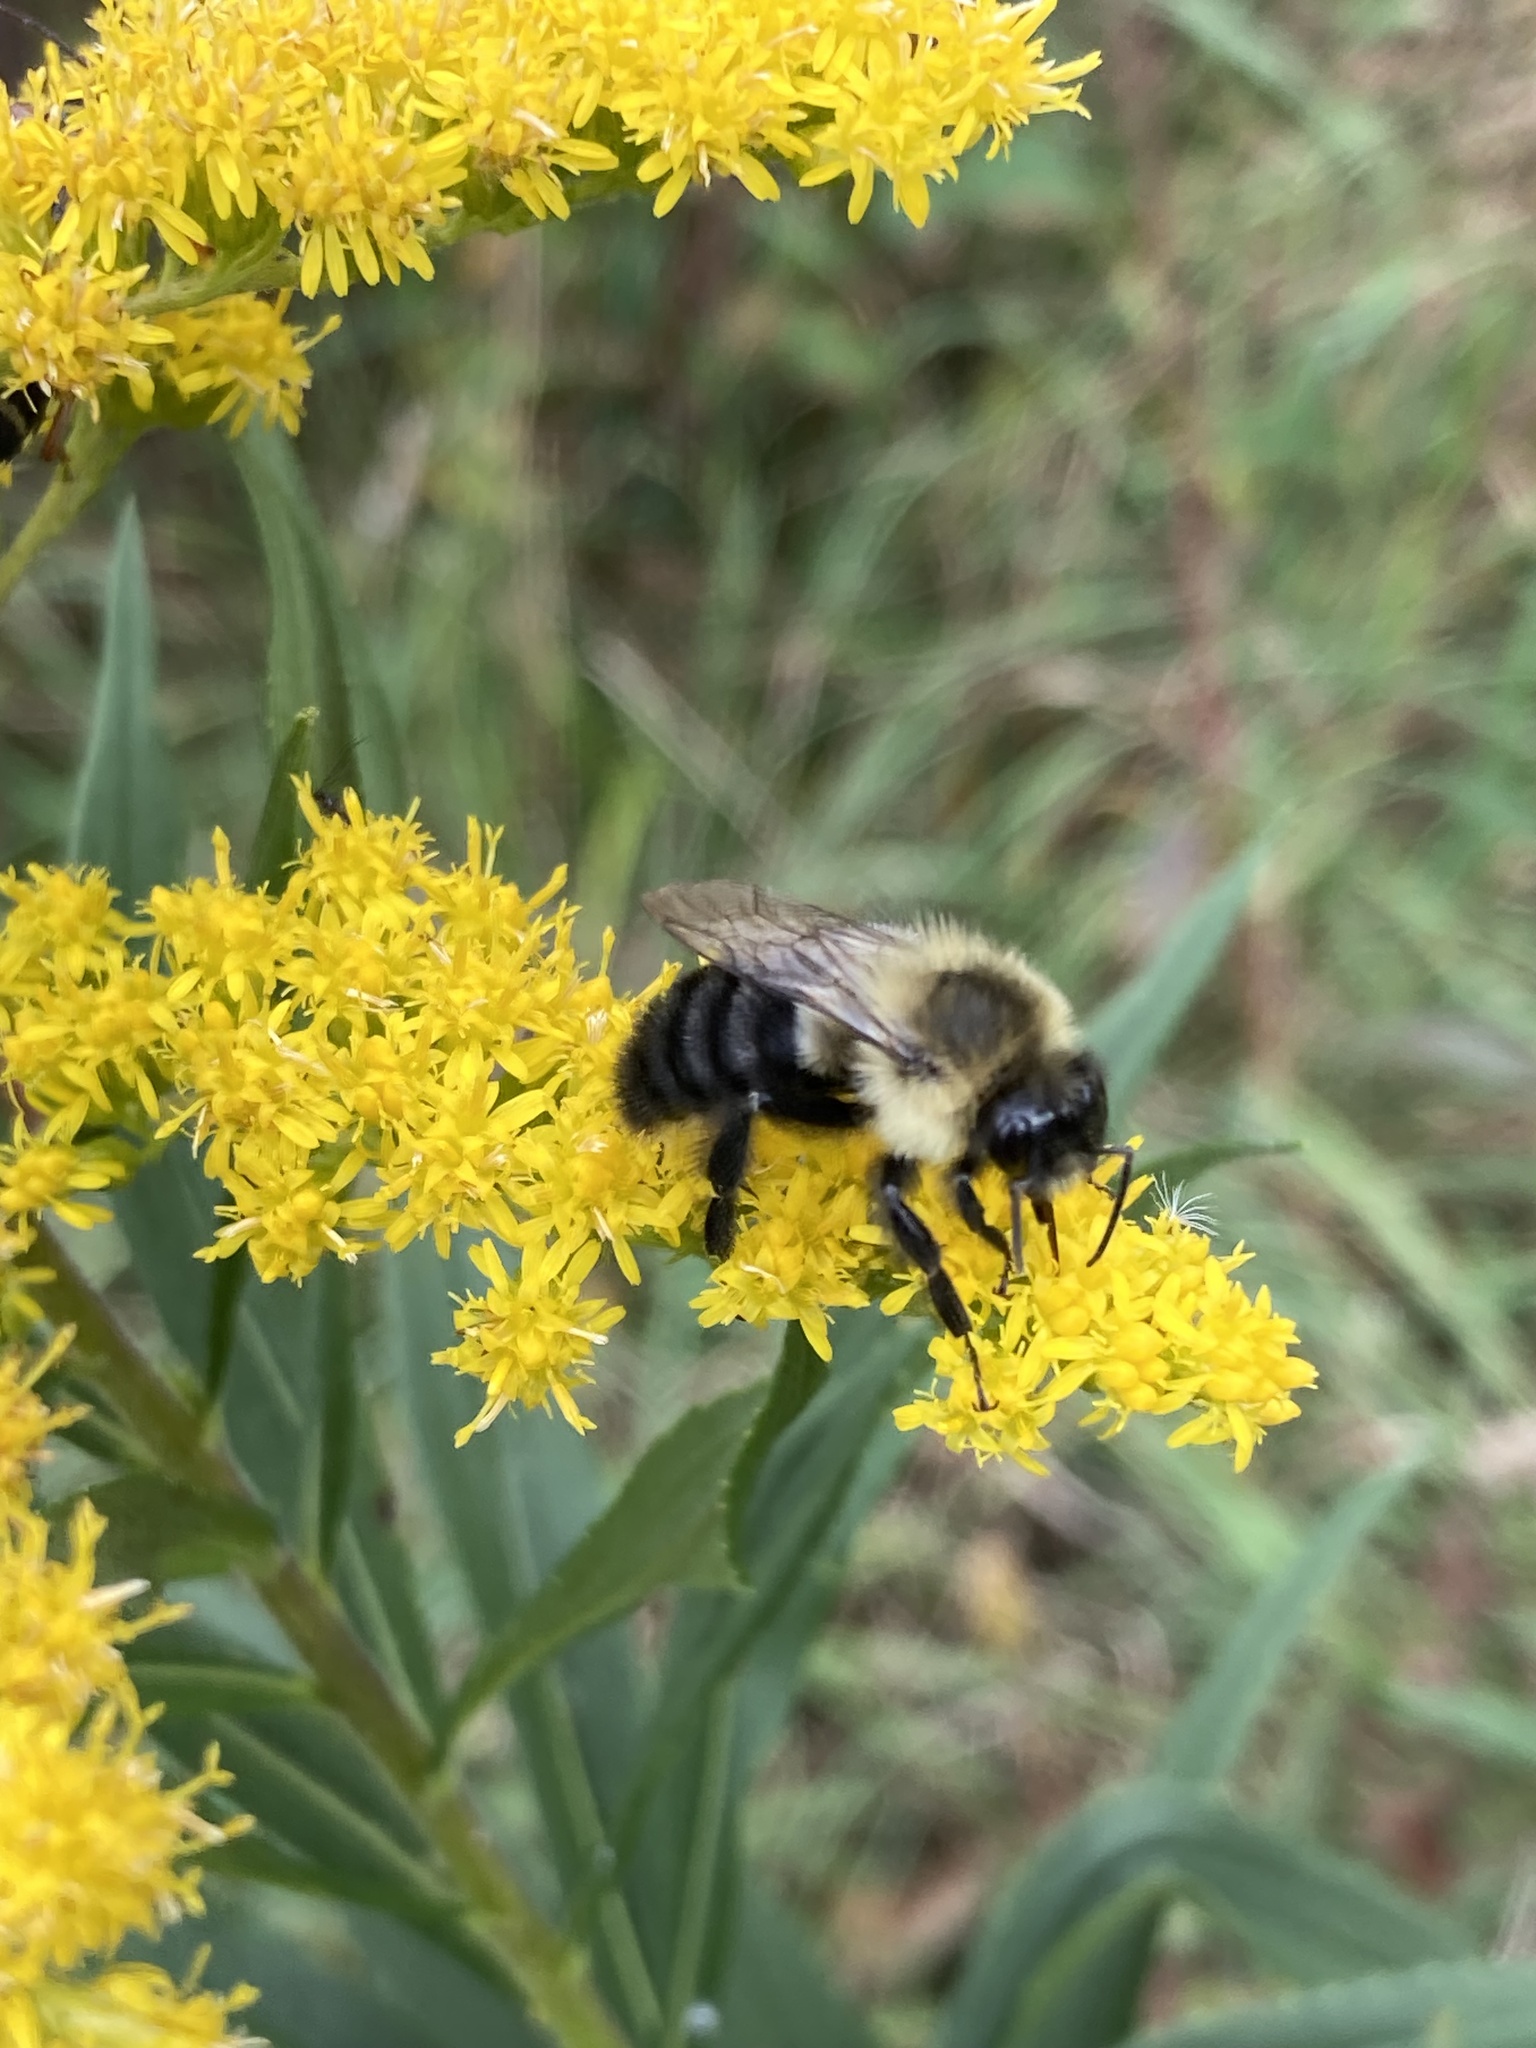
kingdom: Animalia
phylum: Arthropoda
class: Insecta
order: Hymenoptera
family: Apidae
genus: Bombus
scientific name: Bombus impatiens
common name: Common eastern bumble bee
